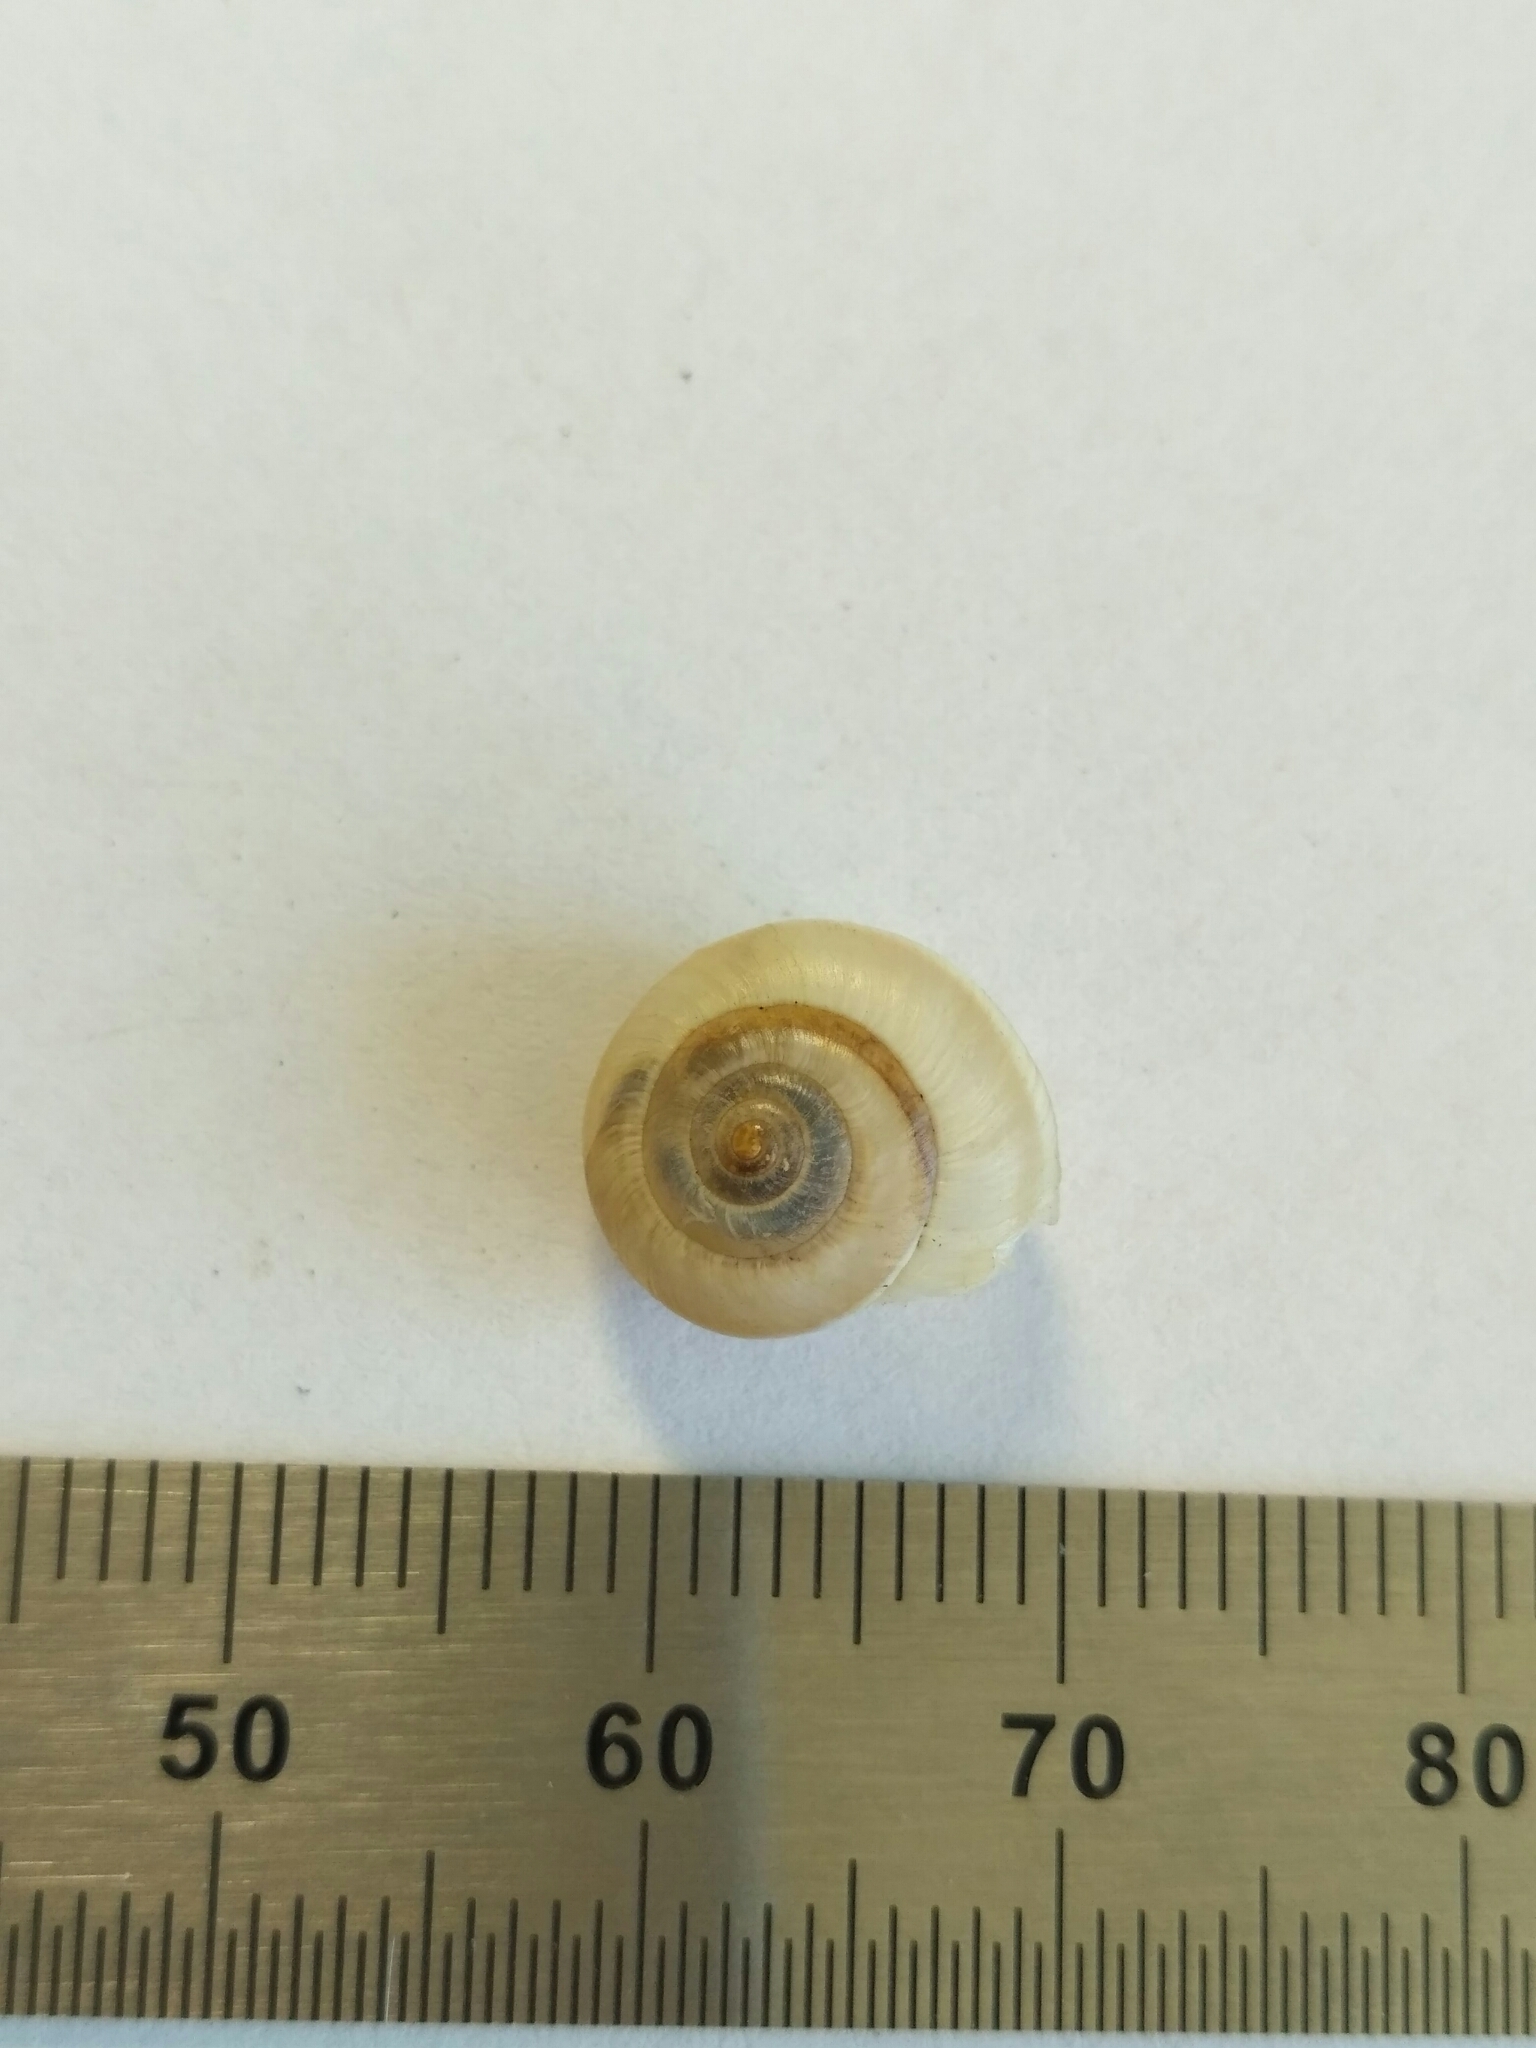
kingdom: Animalia
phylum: Mollusca
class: Gastropoda
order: Stylommatophora
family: Hygromiidae
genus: Harmozica
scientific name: Harmozica ravergiensis
